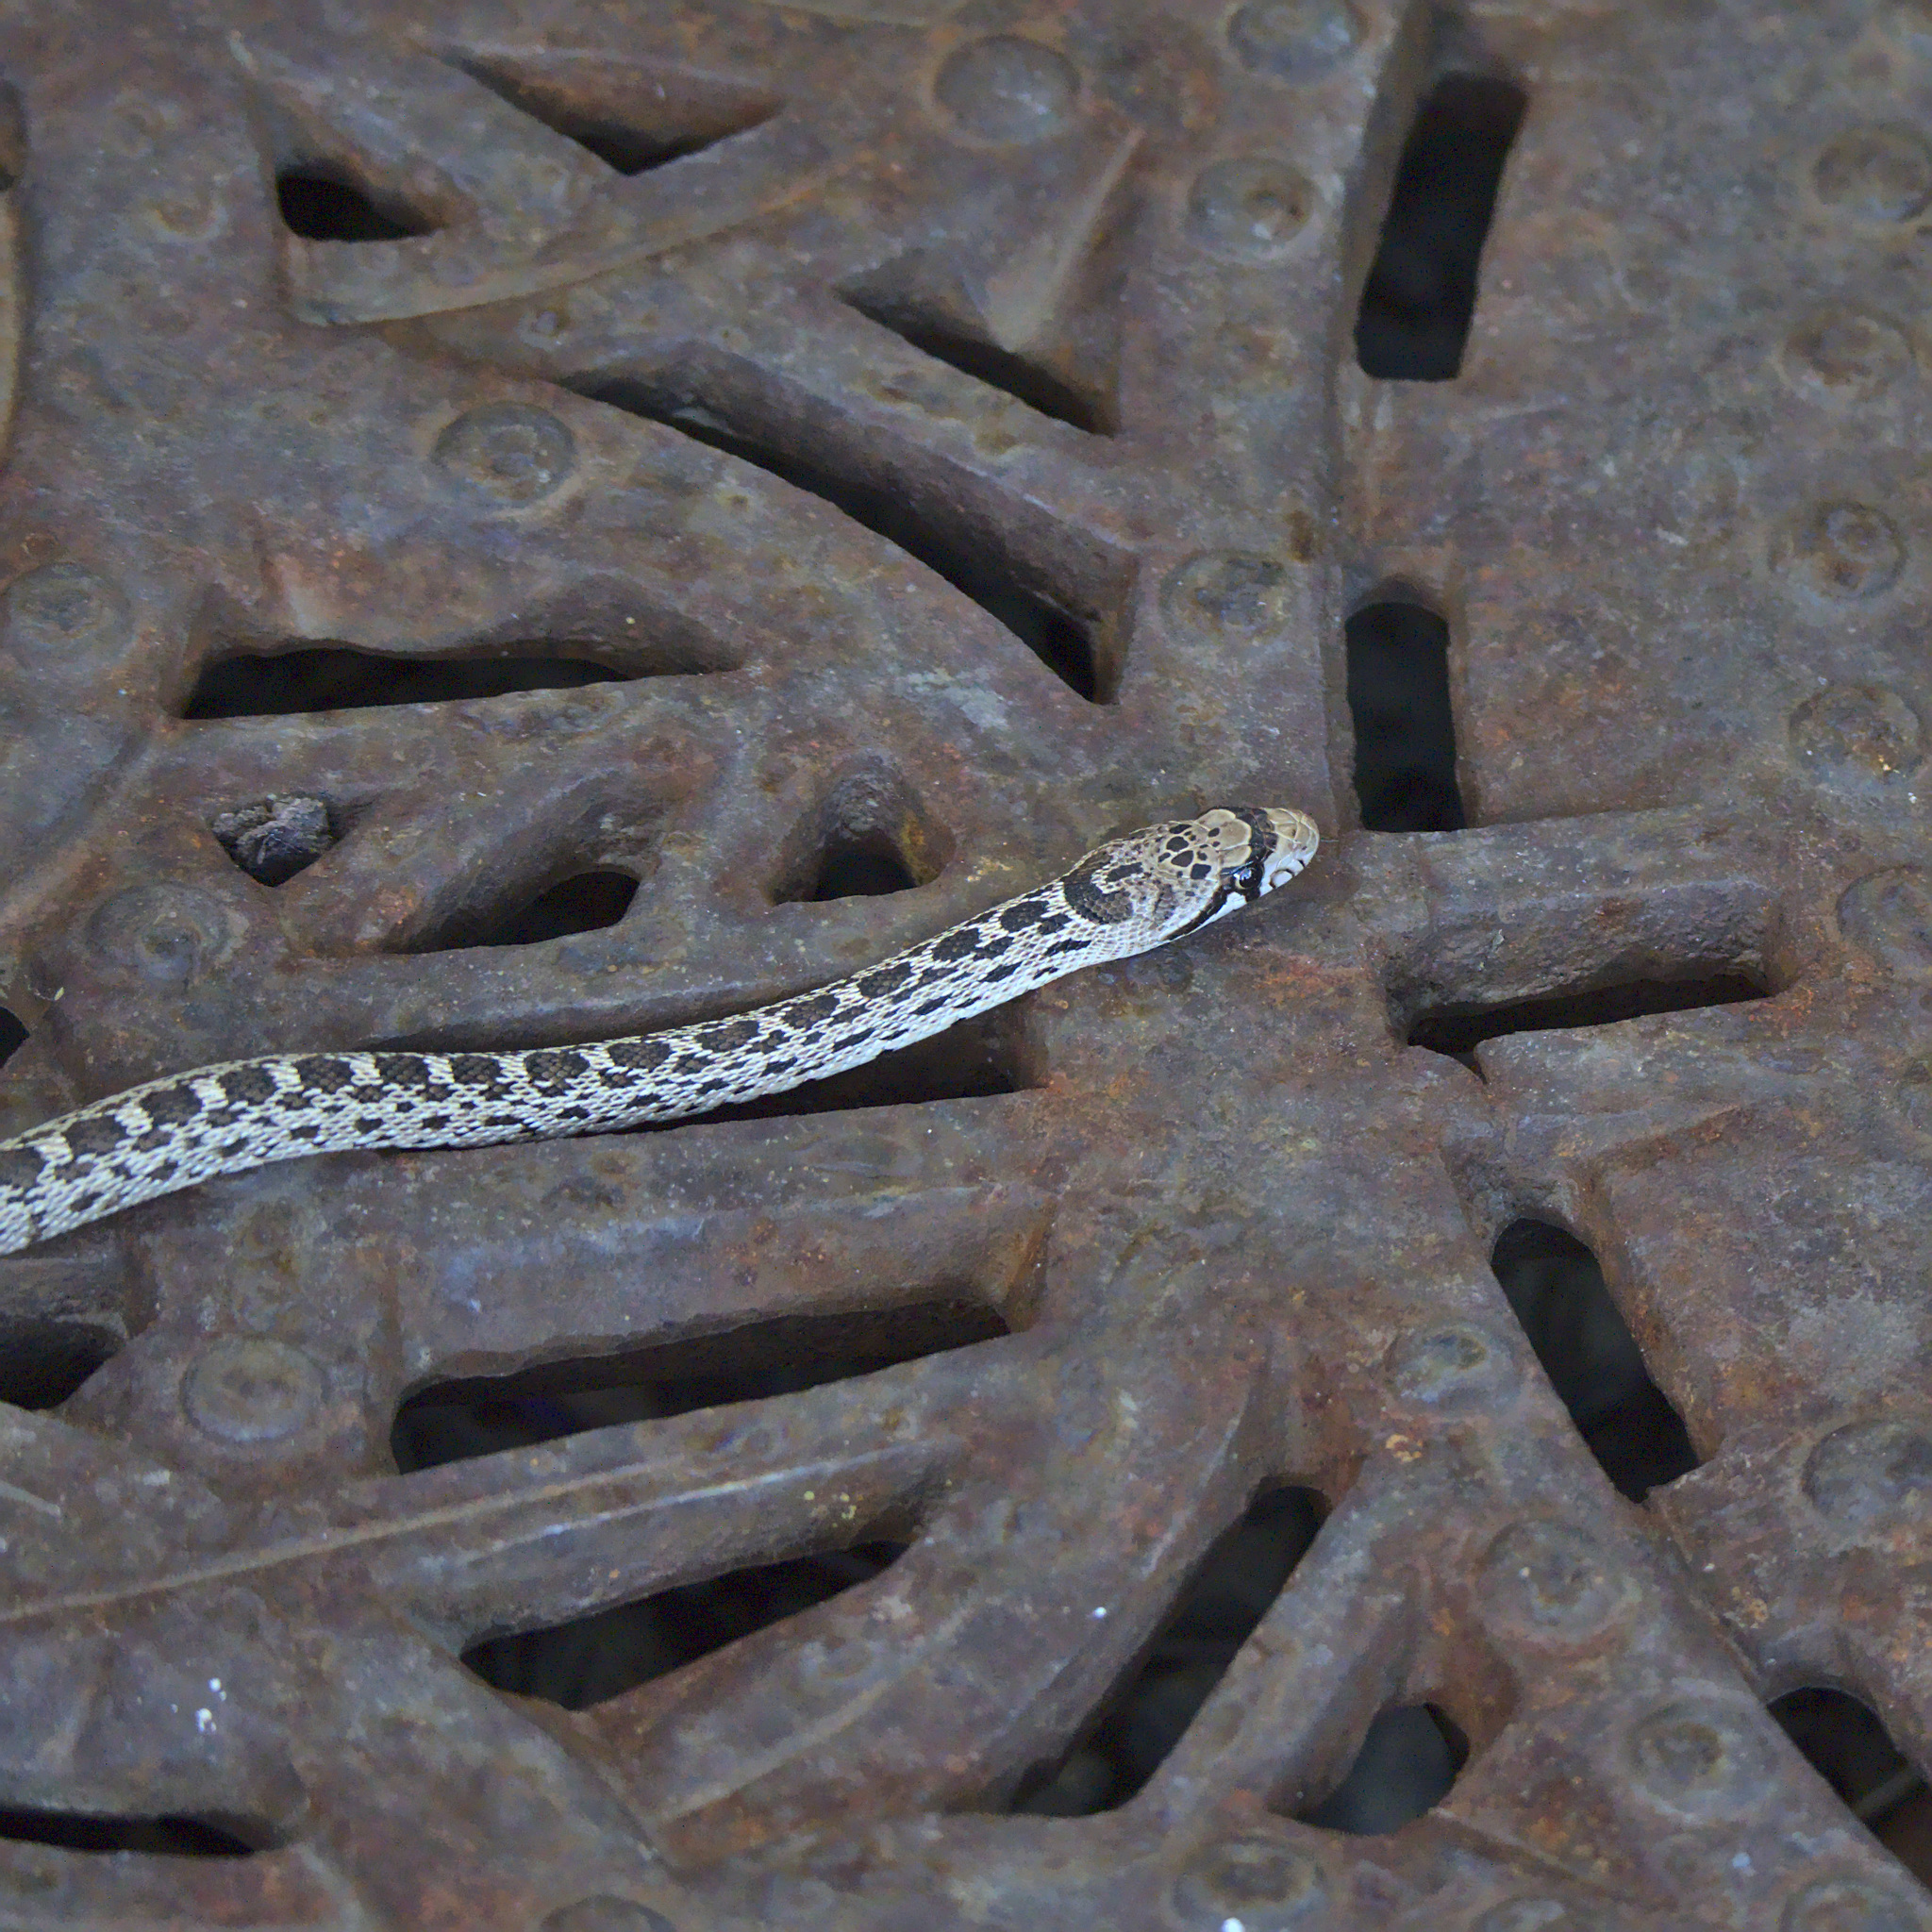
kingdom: Animalia
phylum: Chordata
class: Squamata
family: Colubridae
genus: Pituophis
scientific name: Pituophis catenifer
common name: Gopher snake
